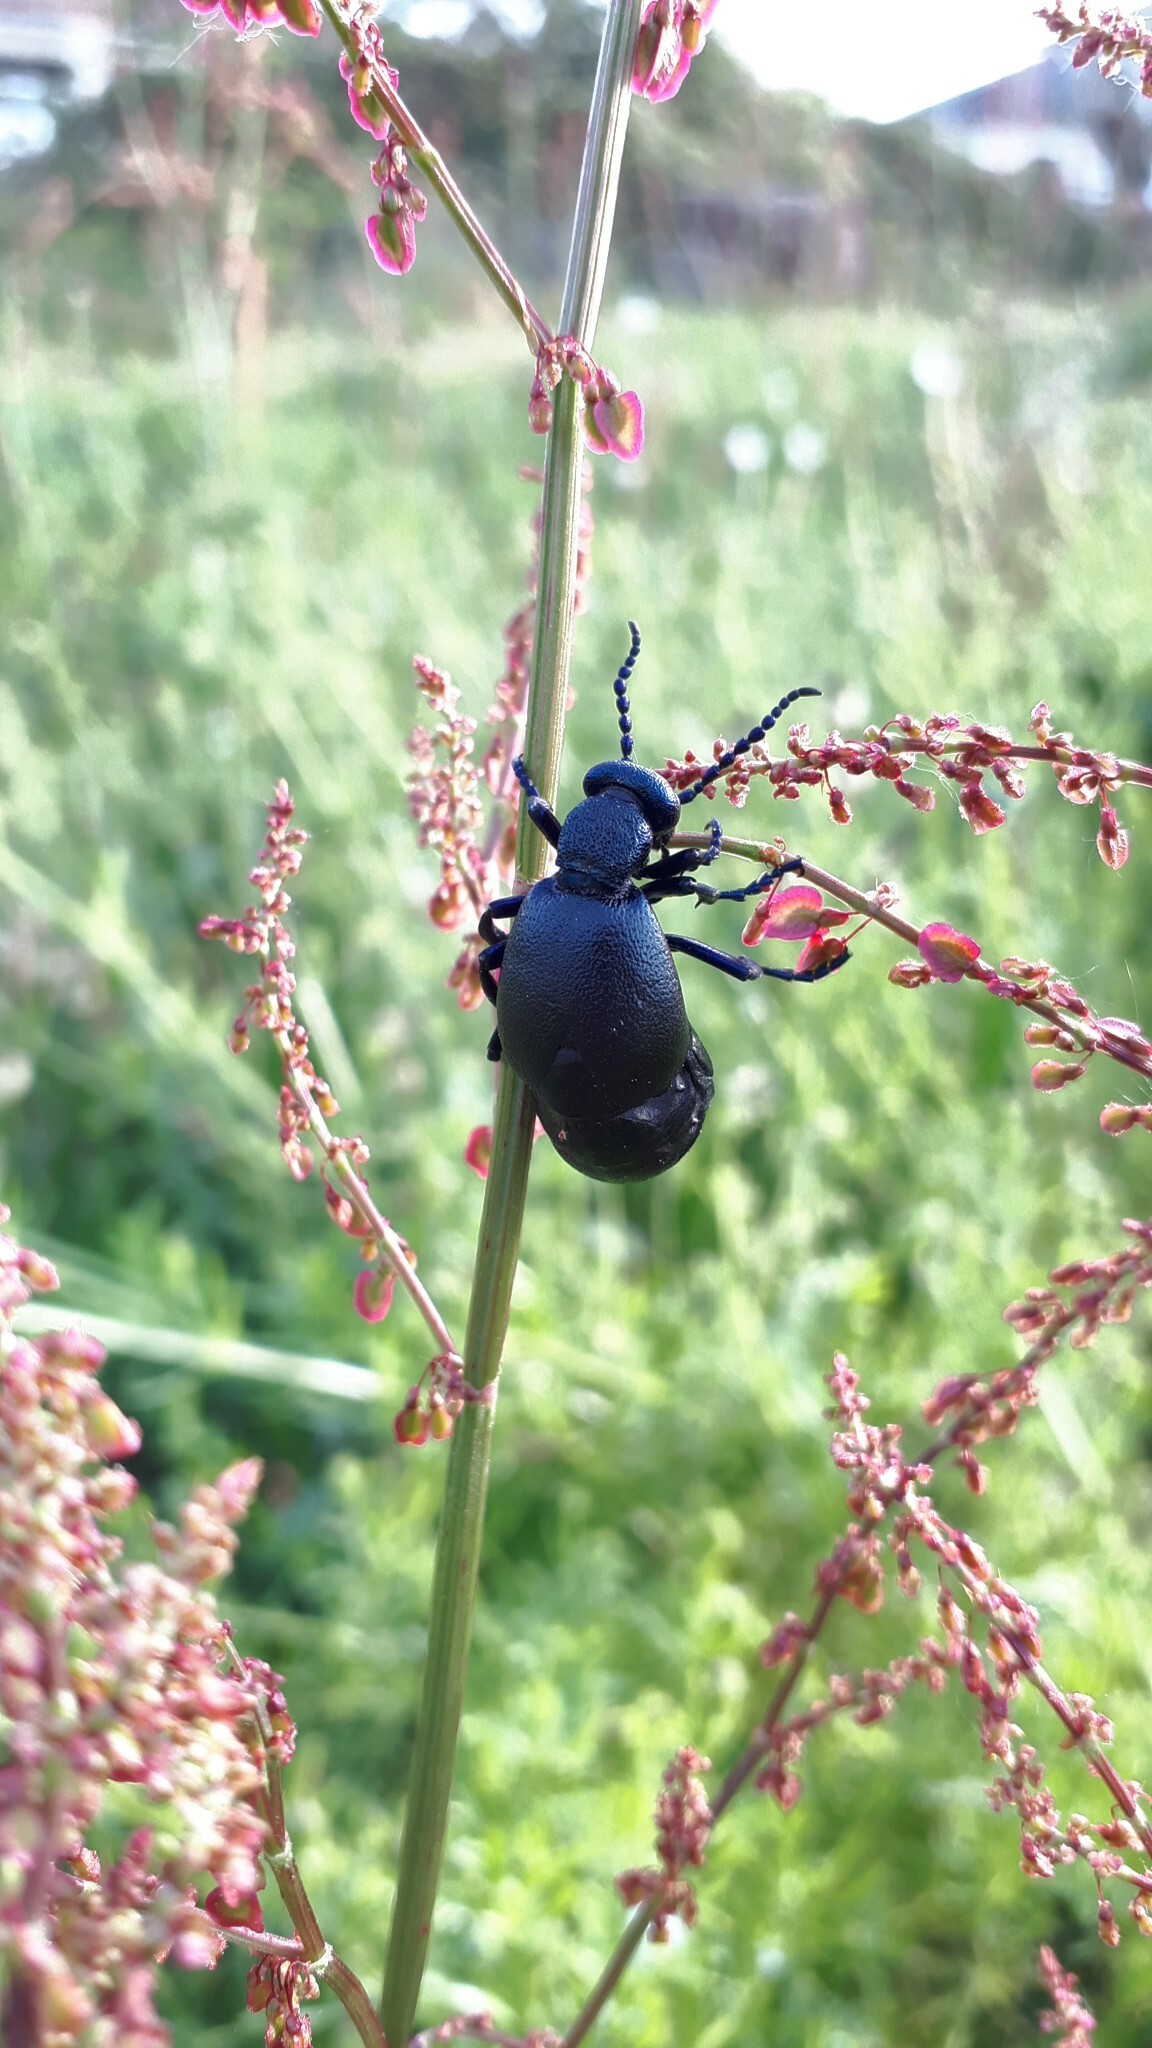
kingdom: Animalia
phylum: Arthropoda
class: Insecta
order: Coleoptera
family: Meloidae
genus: Meloe
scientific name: Meloe proscarabaeus
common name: Black oil-beetle
